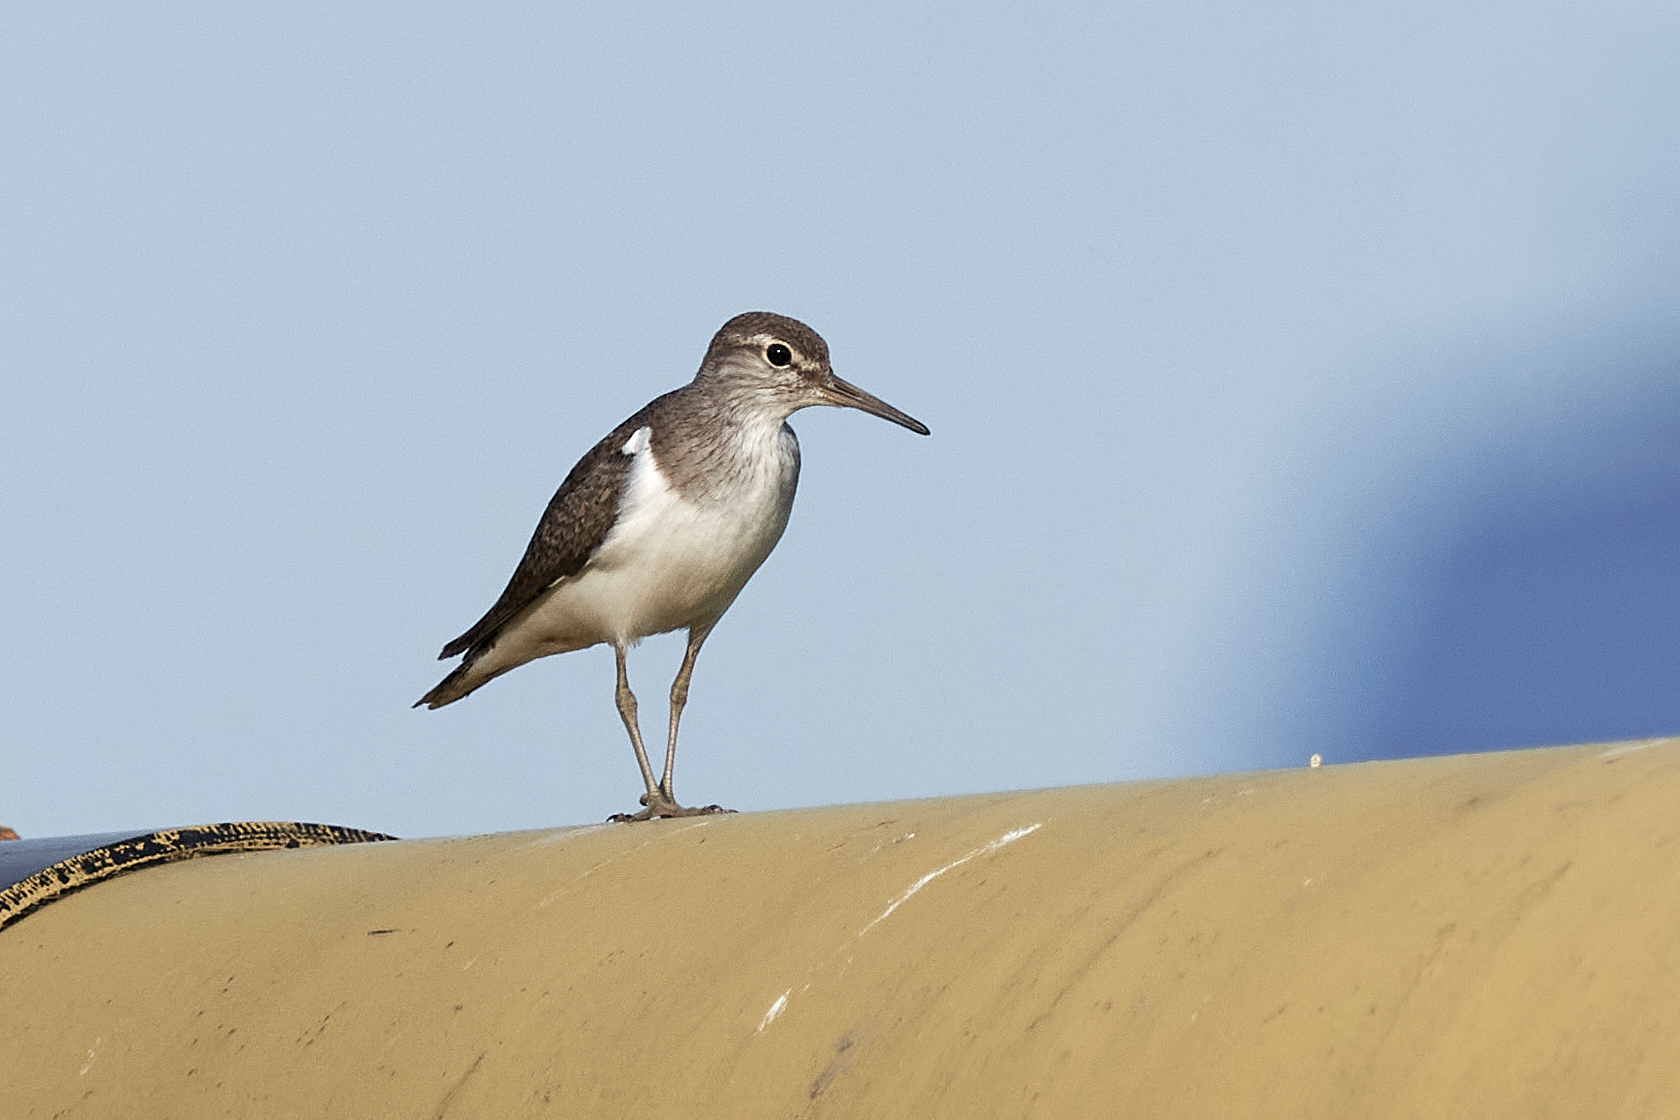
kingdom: Animalia
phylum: Chordata
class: Aves
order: Charadriiformes
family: Scolopacidae
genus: Actitis
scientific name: Actitis hypoleucos
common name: Common sandpiper
